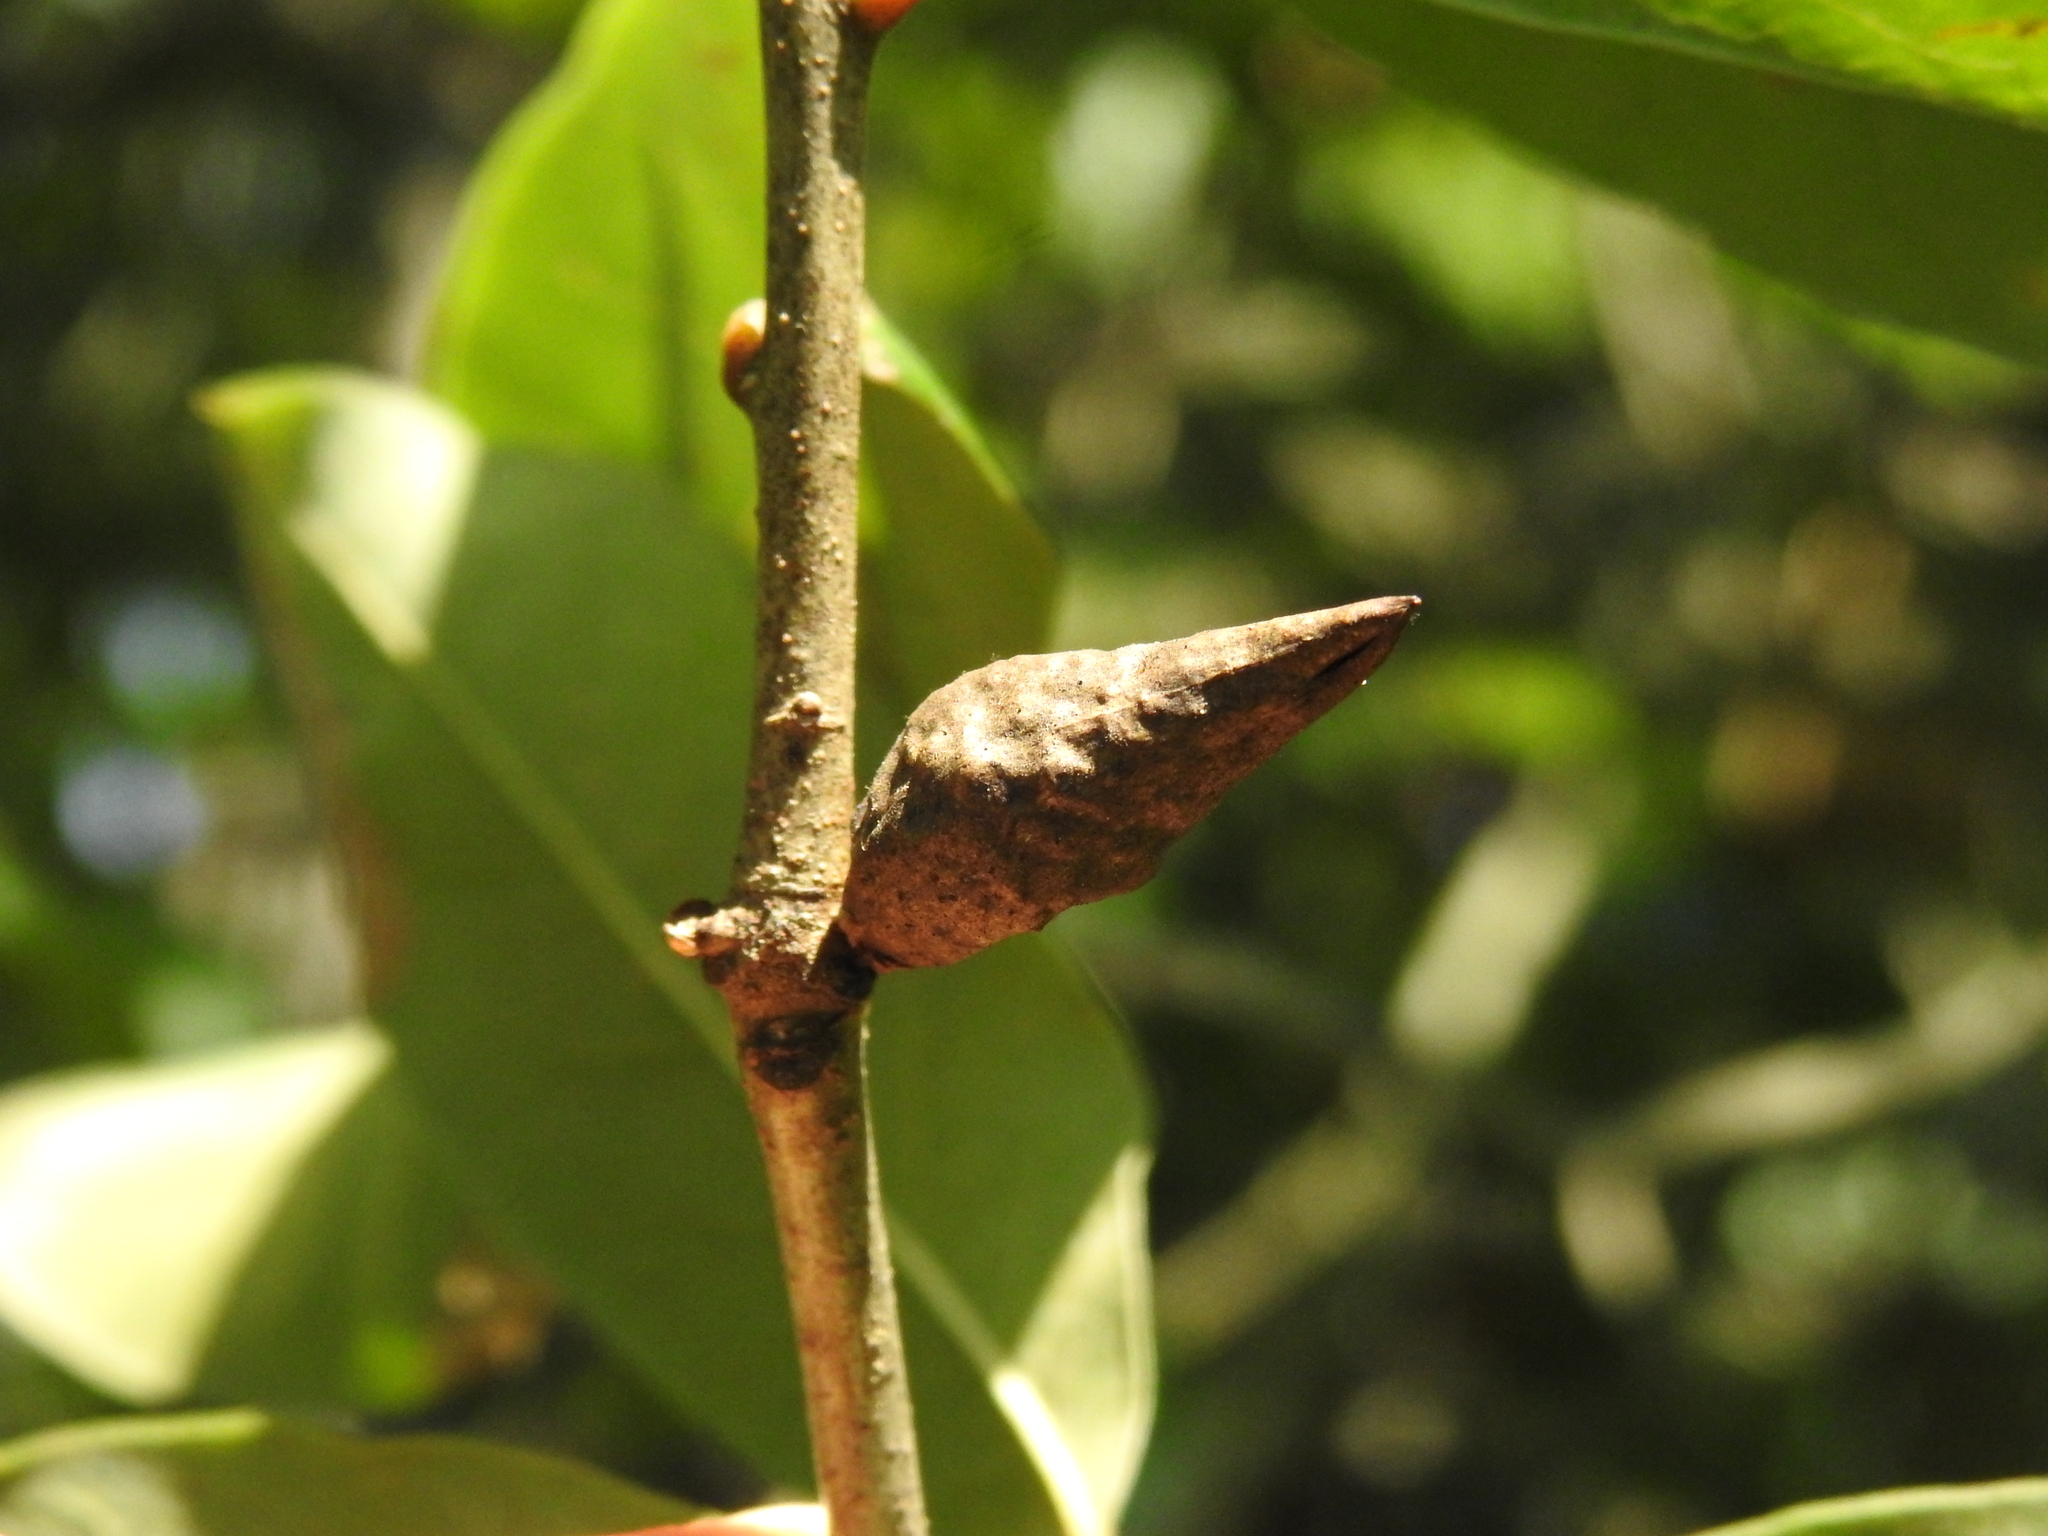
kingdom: Animalia
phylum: Arthropoda
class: Insecta
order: Hymenoptera
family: Cynipidae
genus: Amphibolips
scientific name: Amphibolips
